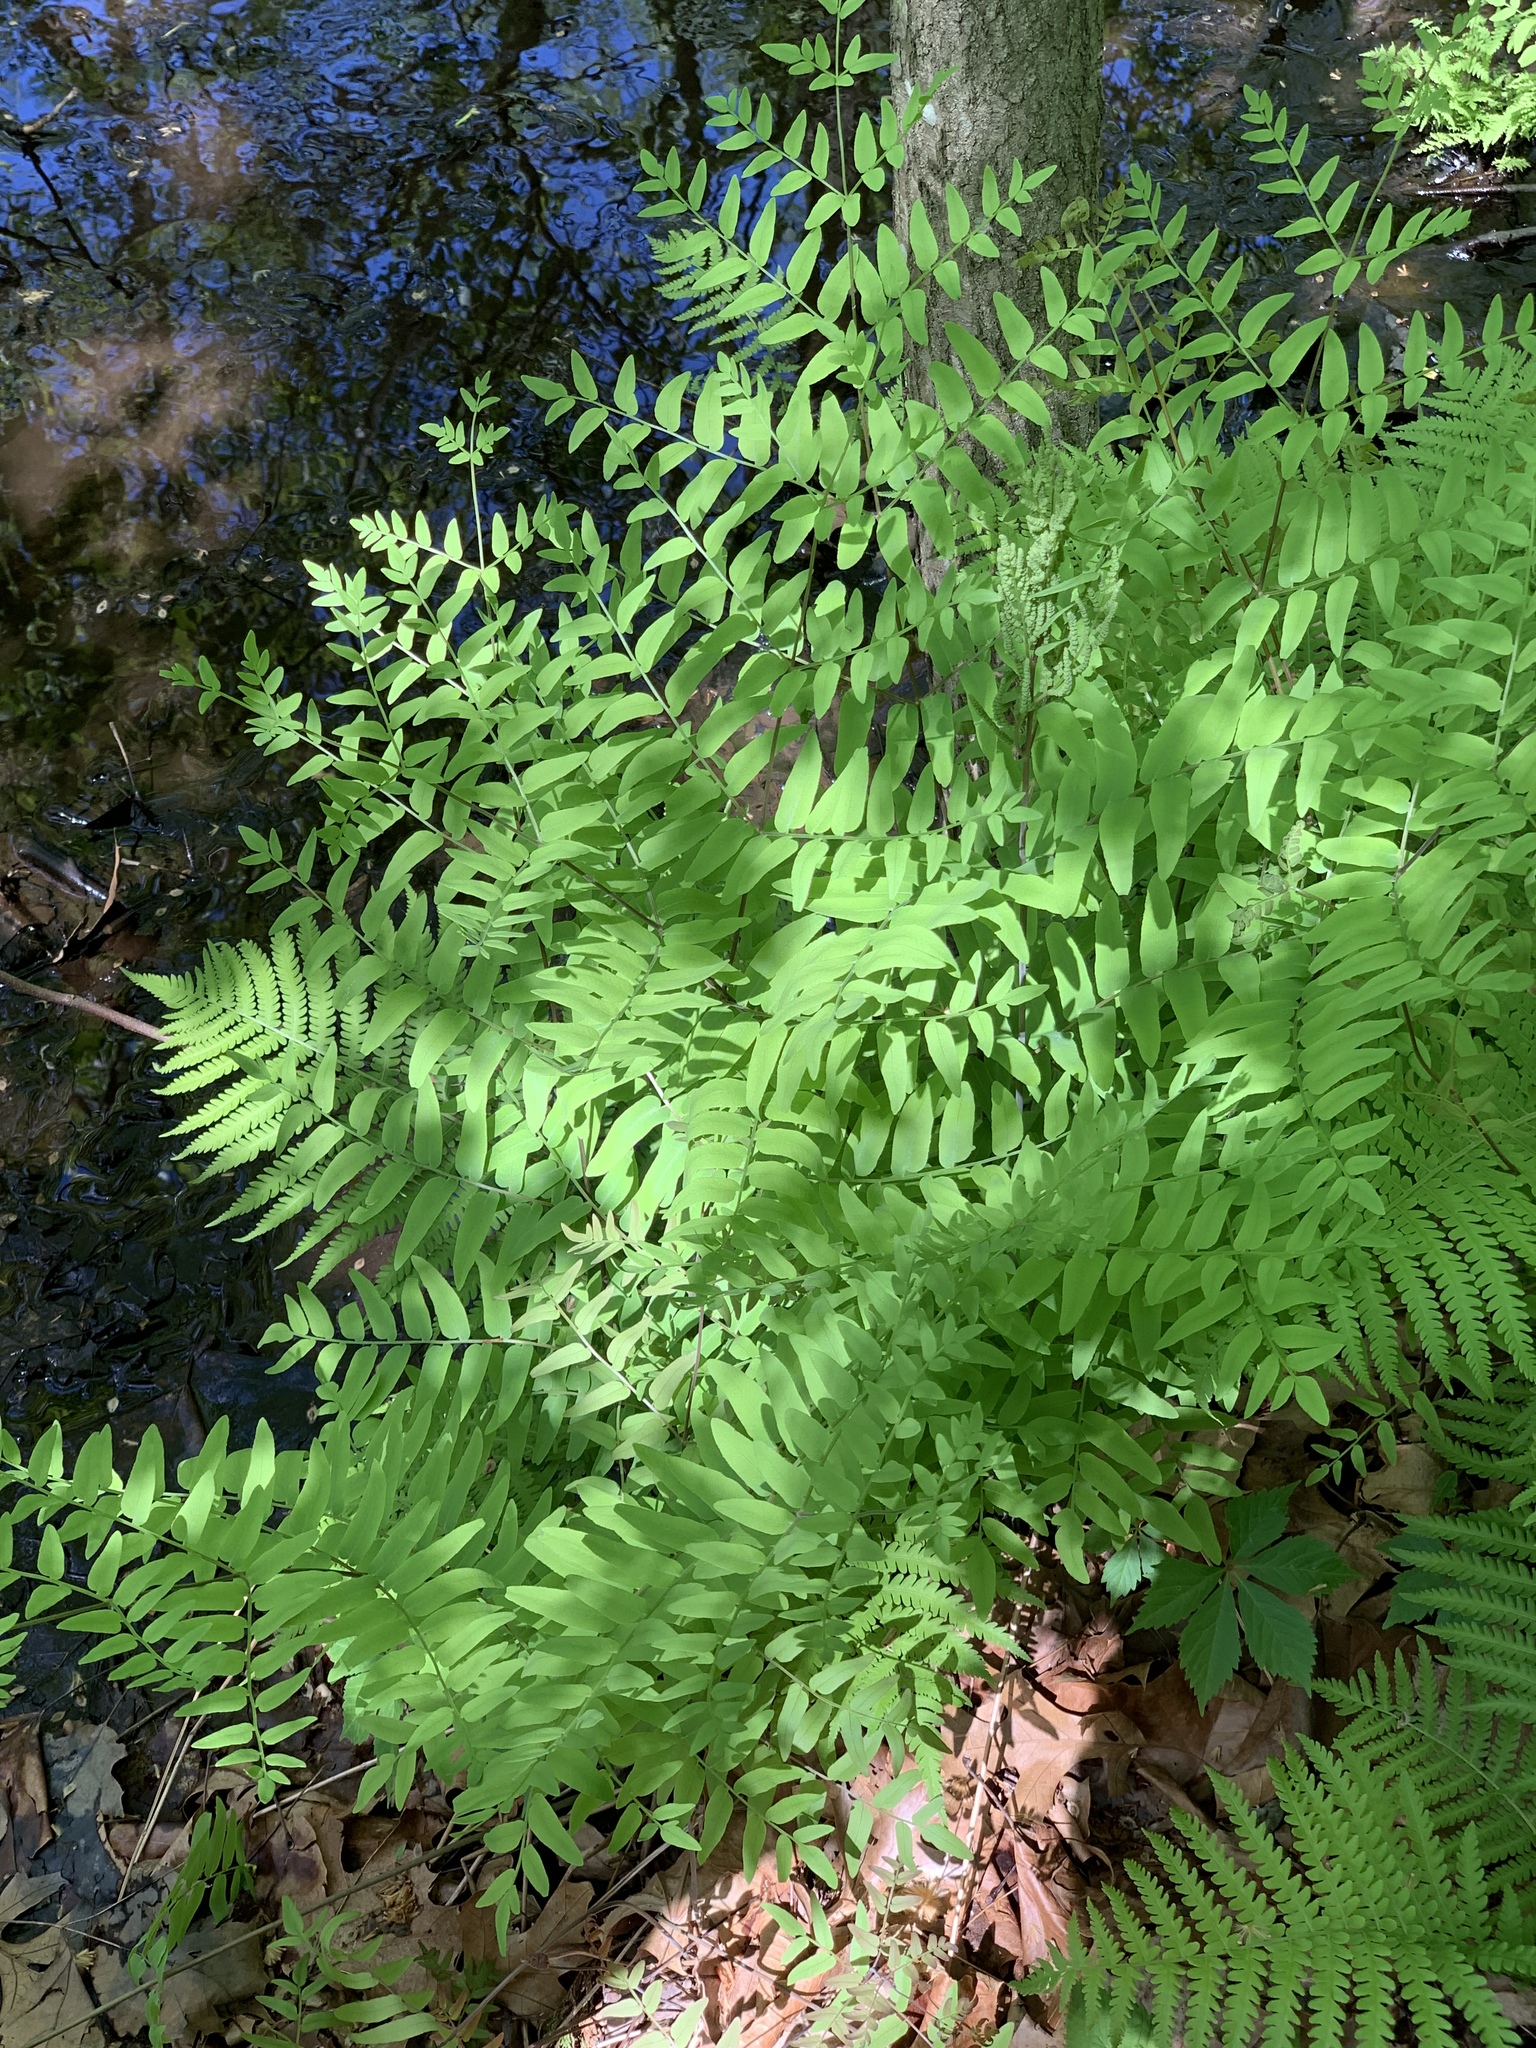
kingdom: Plantae
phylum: Tracheophyta
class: Polypodiopsida
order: Osmundales
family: Osmundaceae
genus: Osmunda
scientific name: Osmunda spectabilis
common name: American royal fern
